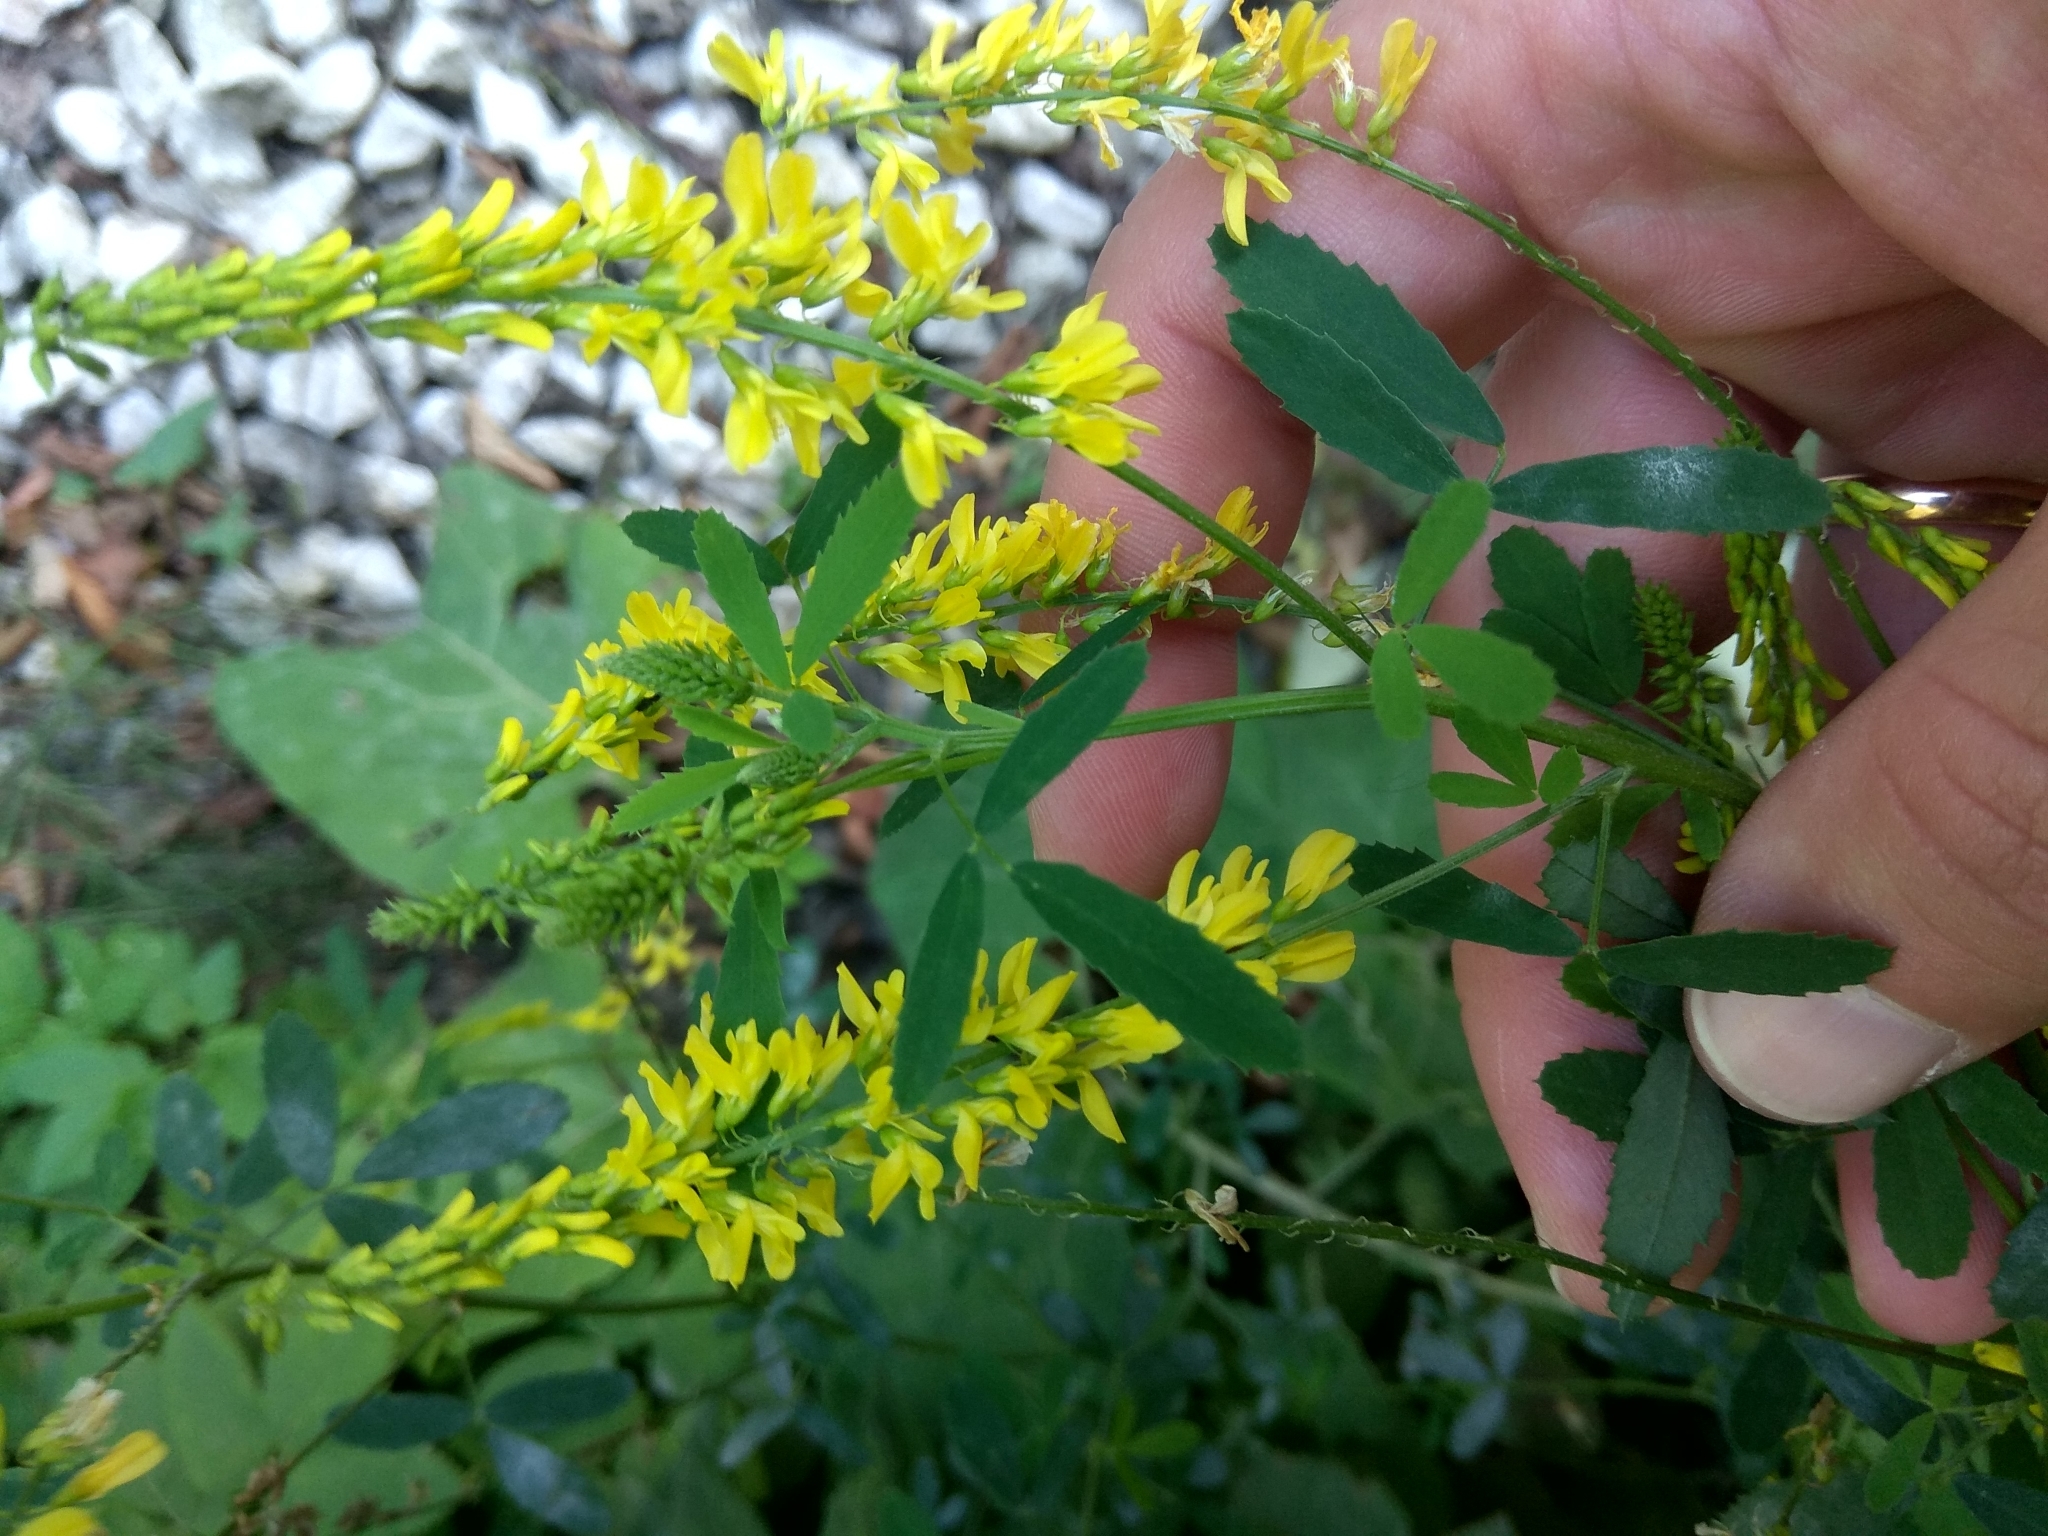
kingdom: Plantae
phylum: Tracheophyta
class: Magnoliopsida
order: Fabales
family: Fabaceae
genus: Melilotus
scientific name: Melilotus officinalis
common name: Sweetclover
